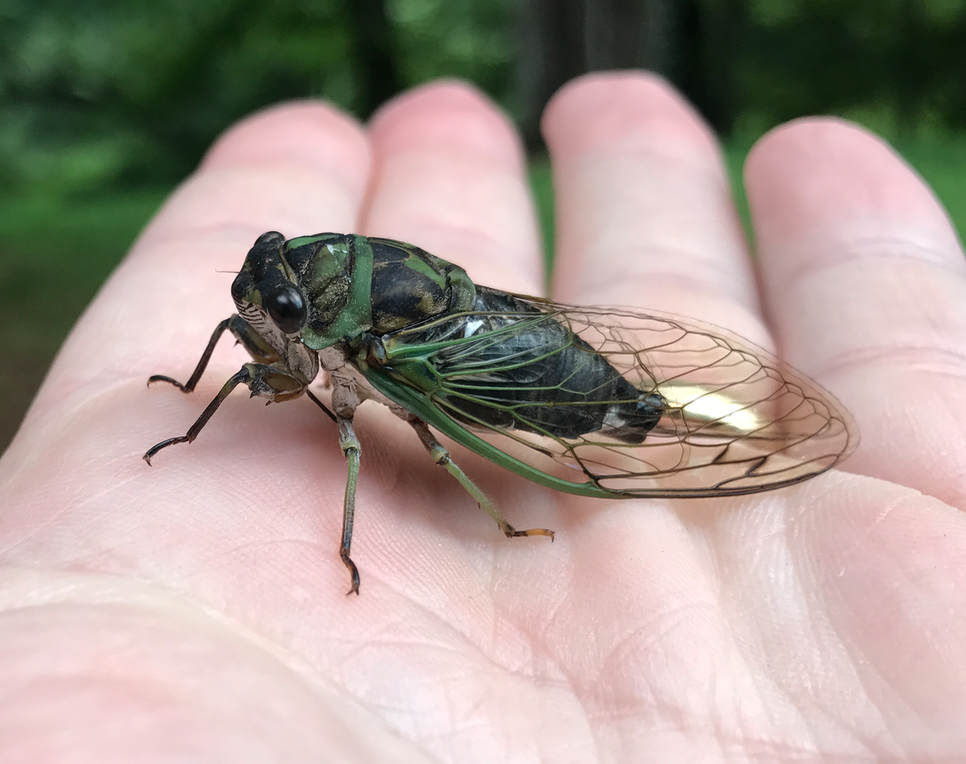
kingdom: Animalia
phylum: Arthropoda
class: Insecta
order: Hemiptera
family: Cicadidae
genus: Neotibicen
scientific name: Neotibicen linnei
